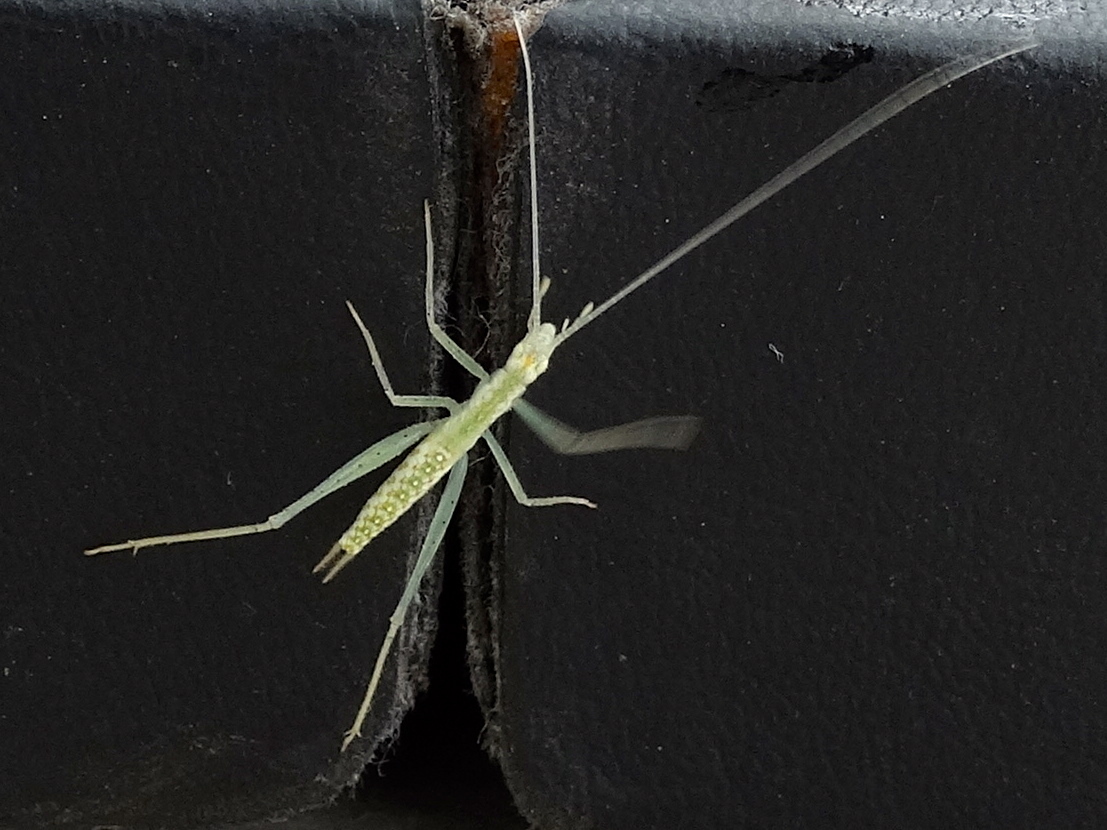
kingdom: Animalia
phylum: Arthropoda
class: Insecta
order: Orthoptera
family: Gryllidae
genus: Oecanthus
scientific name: Oecanthus leptogrammus
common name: Thin-lined tree cricket
